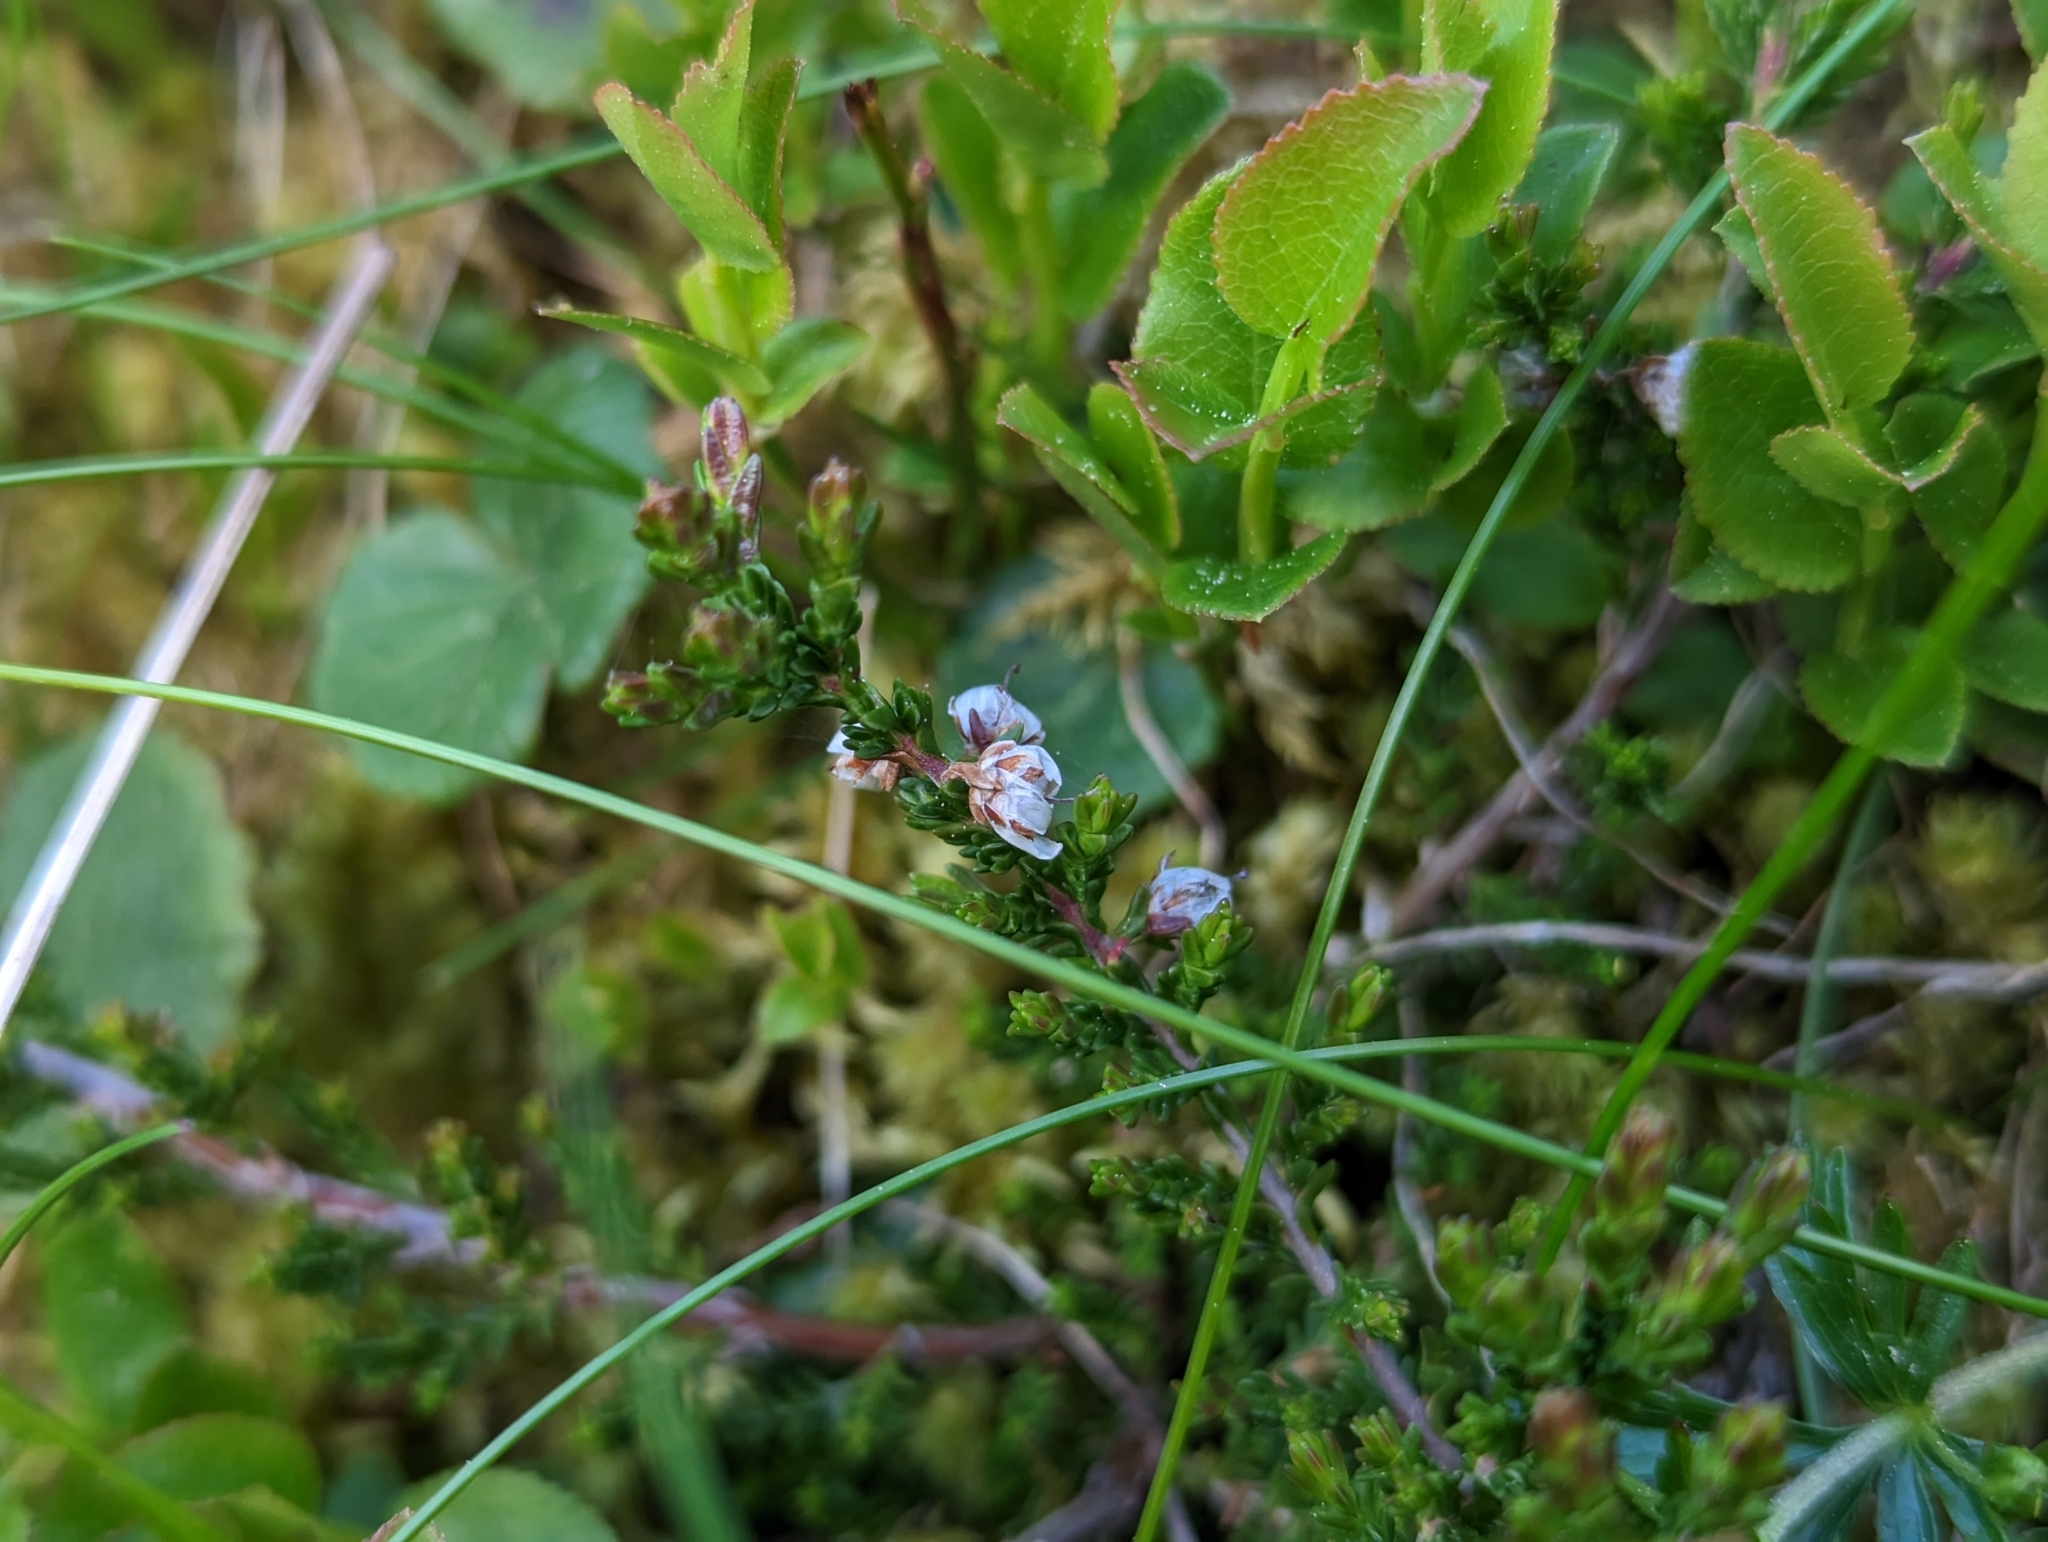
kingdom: Plantae
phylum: Tracheophyta
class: Magnoliopsida
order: Ericales
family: Ericaceae
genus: Calluna
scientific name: Calluna vulgaris
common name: Heather
